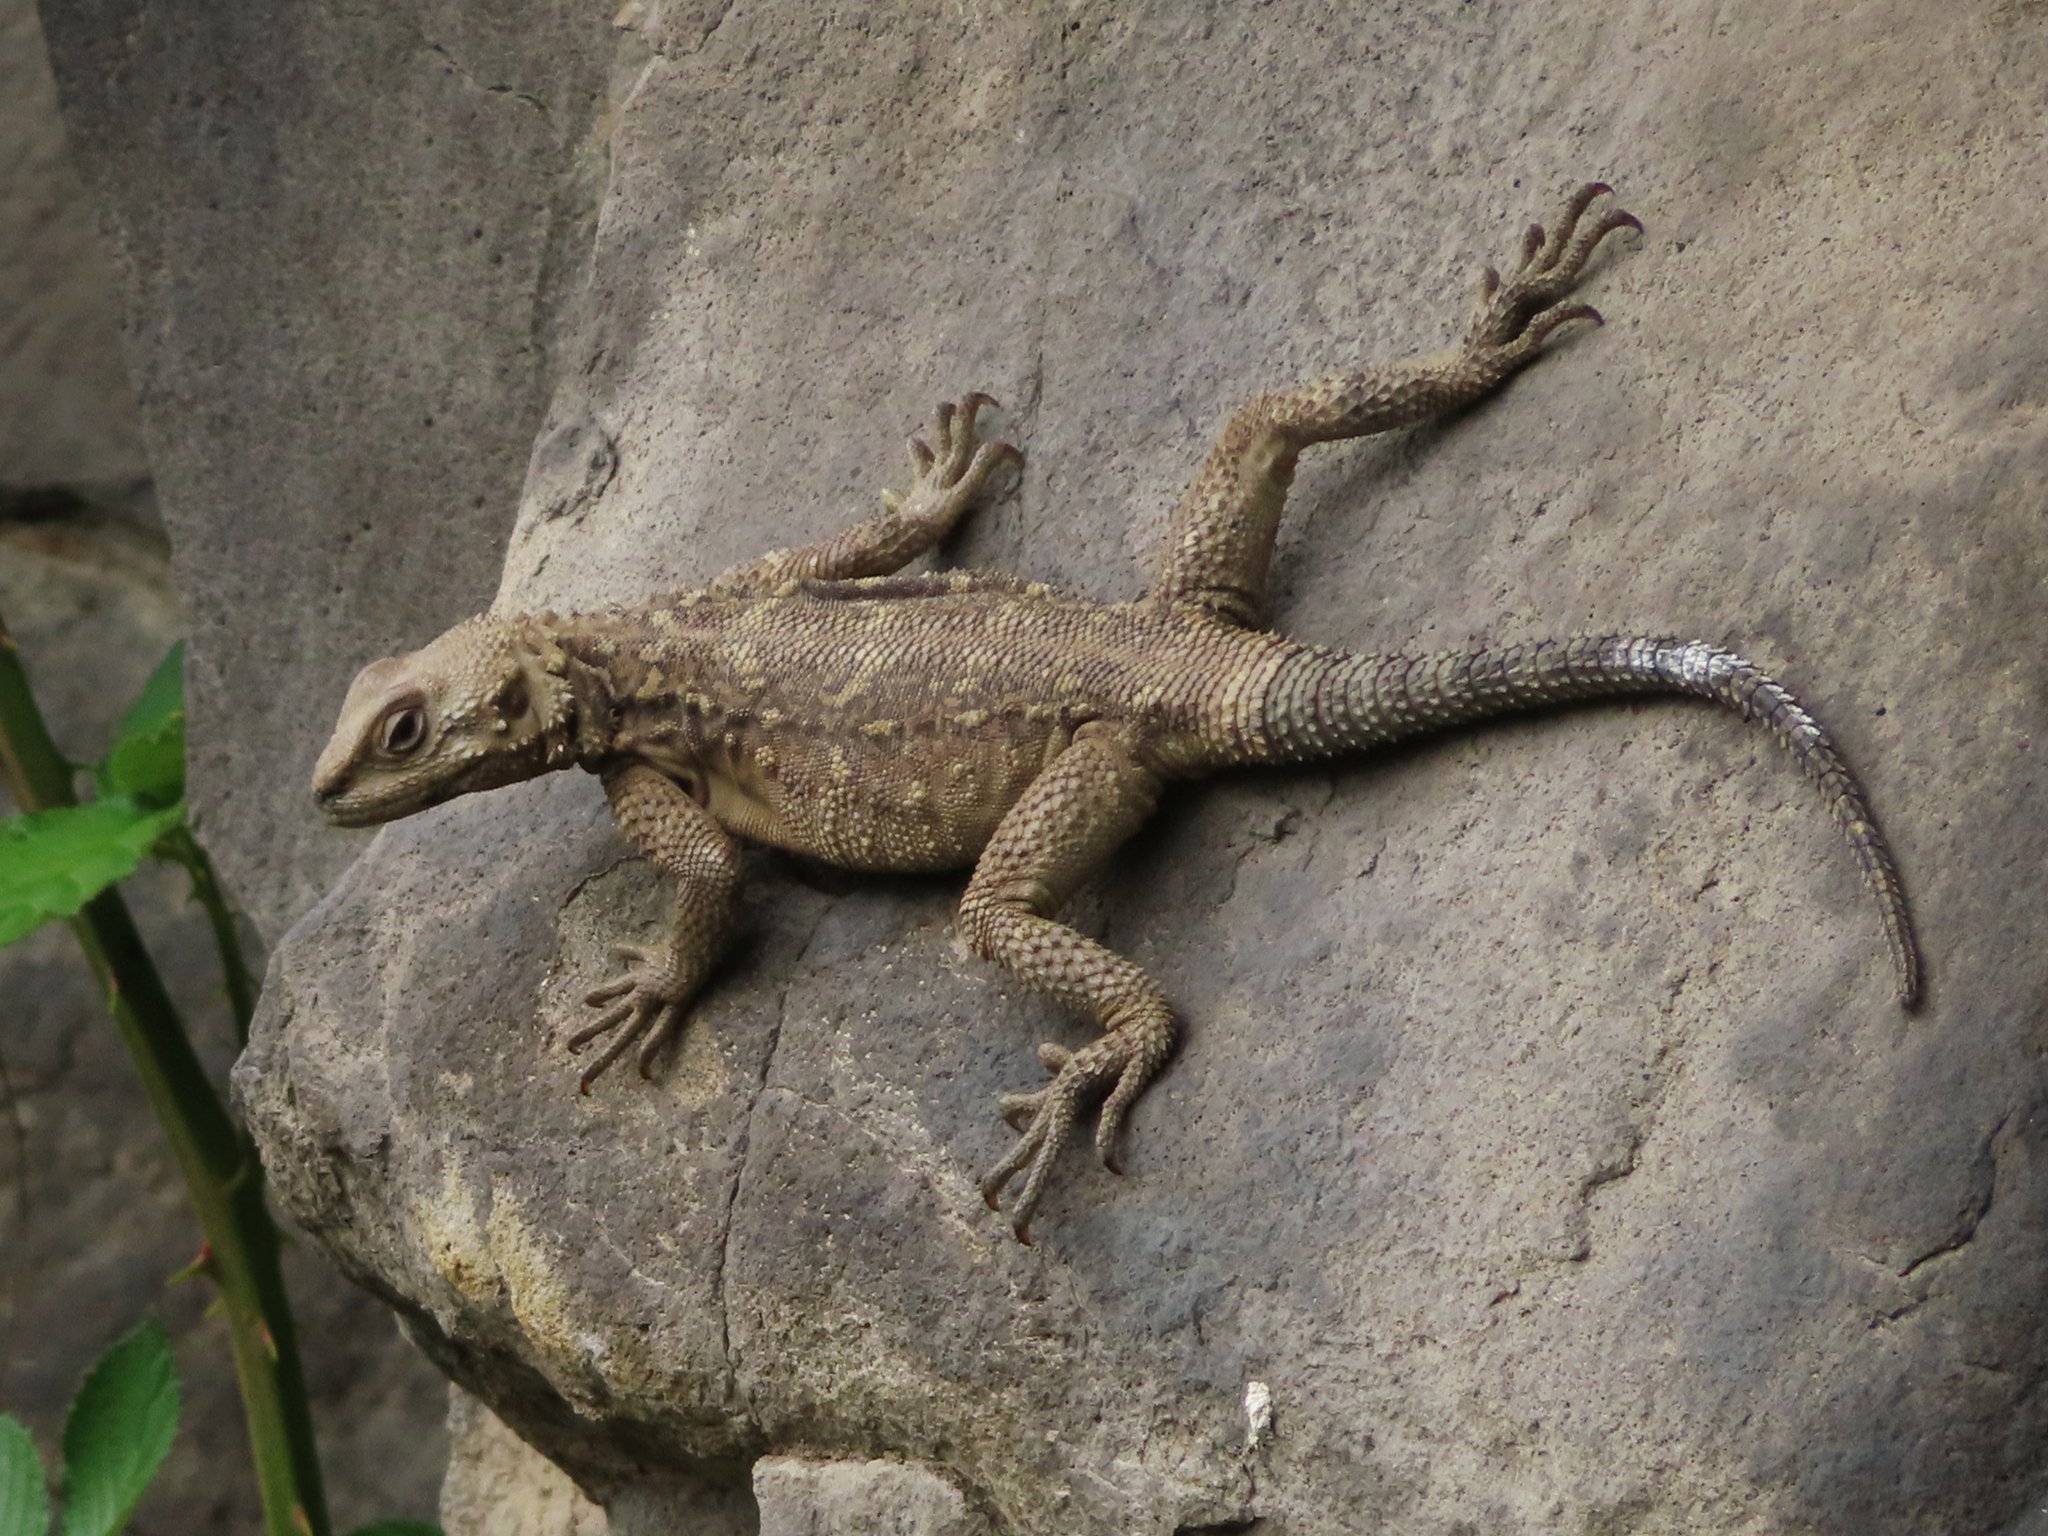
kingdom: Animalia
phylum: Chordata
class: Squamata
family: Agamidae
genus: Paralaudakia
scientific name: Paralaudakia caucasia
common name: Caucasian agama
